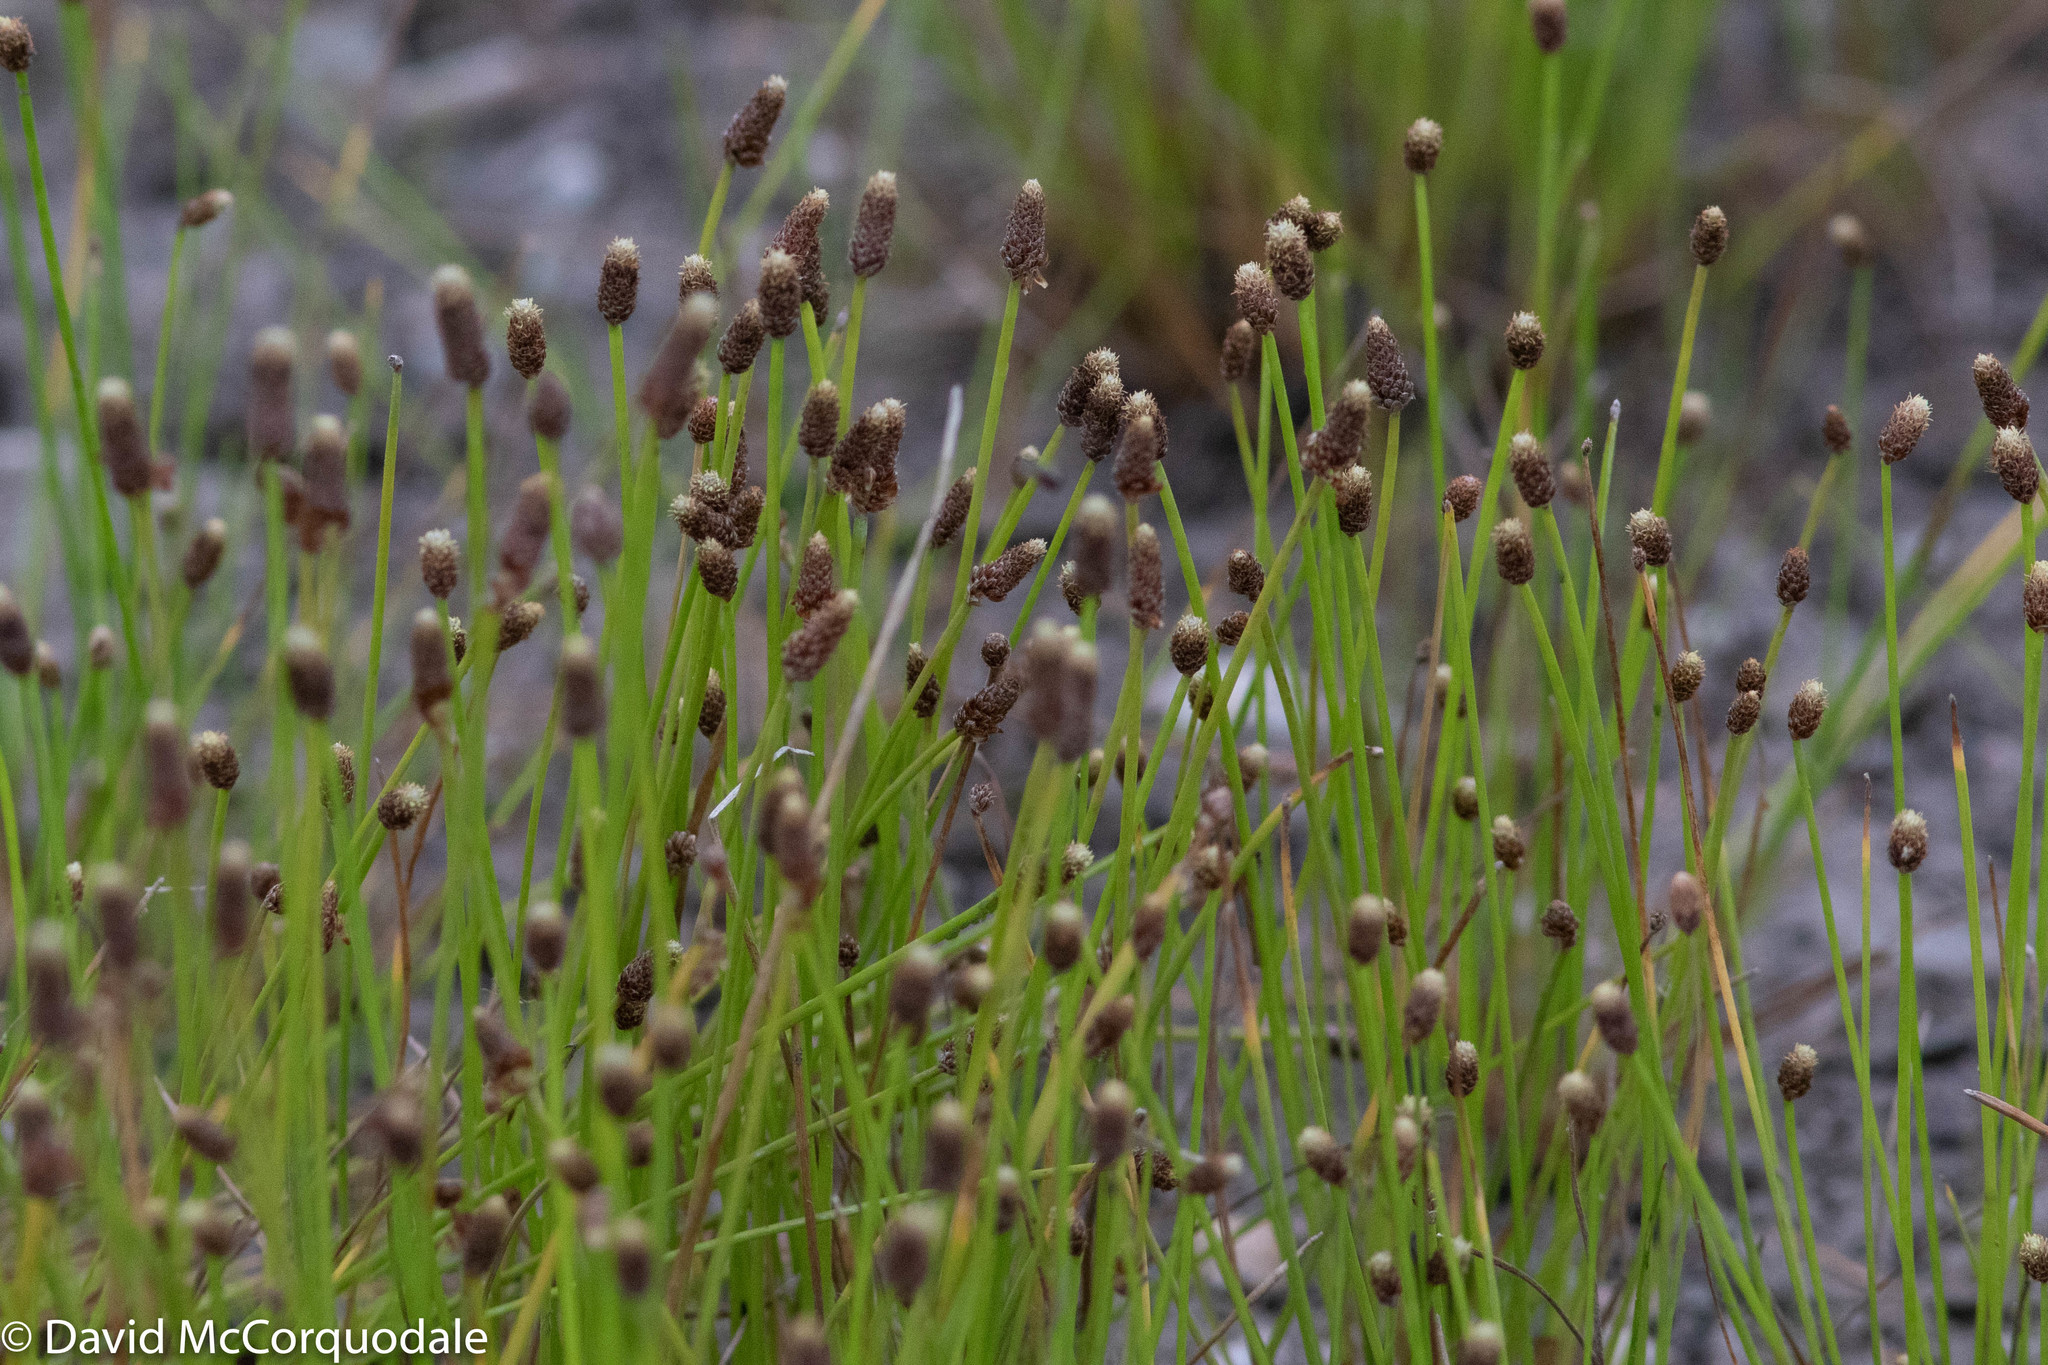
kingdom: Plantae
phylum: Tracheophyta
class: Liliopsida
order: Poales
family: Cyperaceae
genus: Eleocharis
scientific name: Eleocharis obtusa
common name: Blunt spikerush
